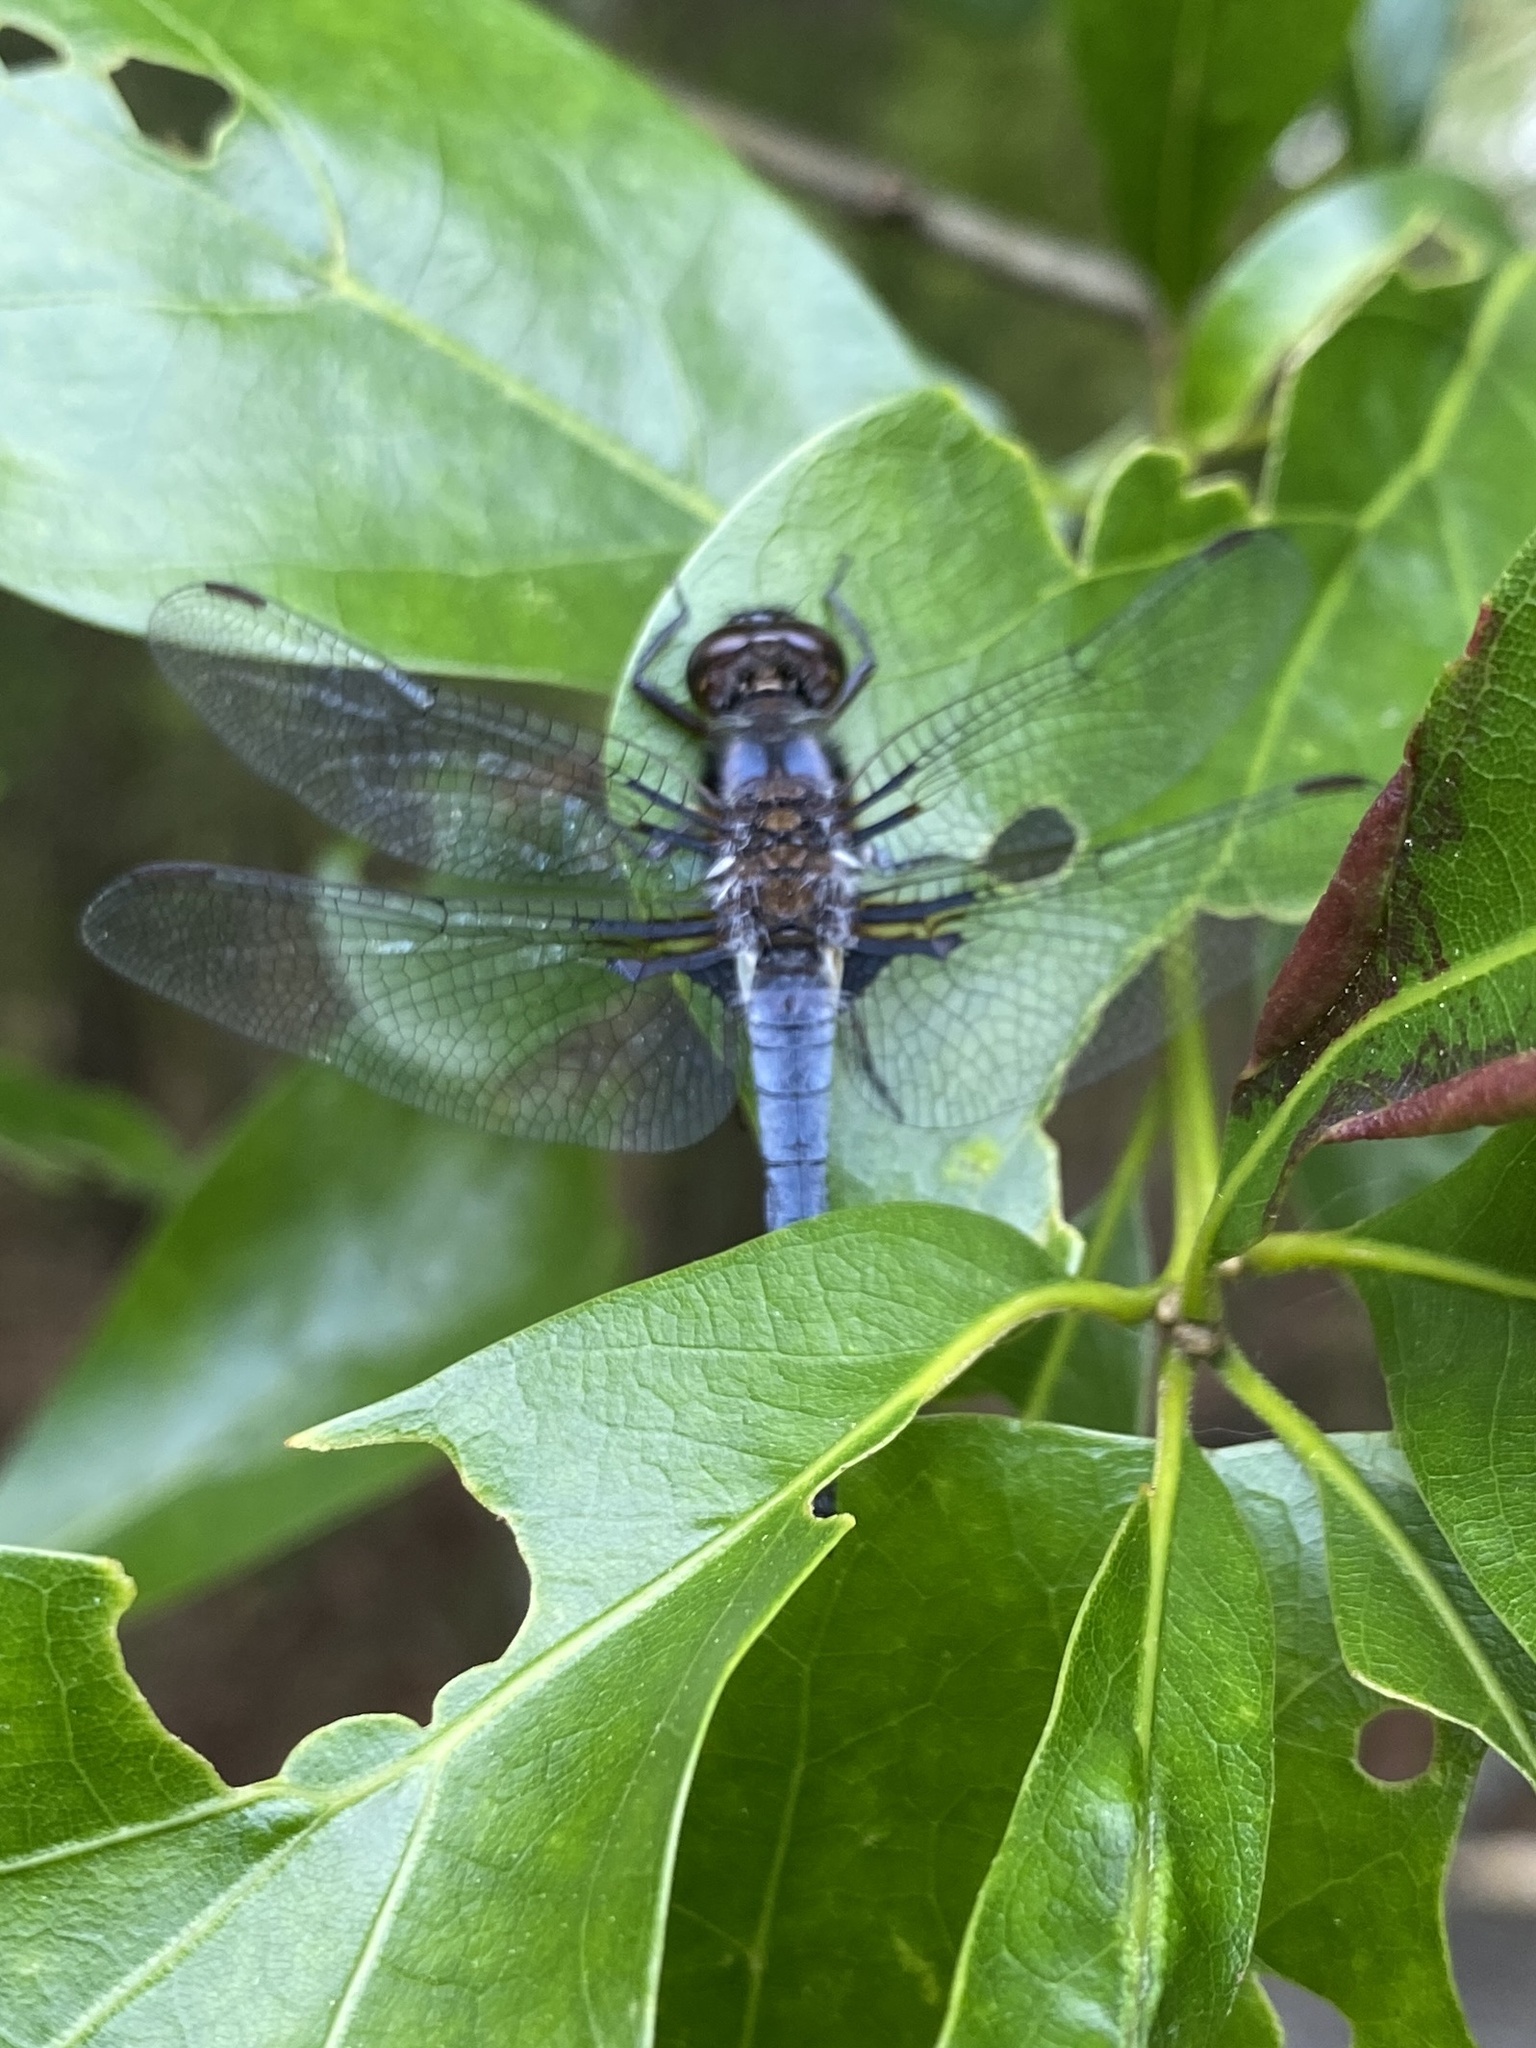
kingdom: Animalia
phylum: Arthropoda
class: Insecta
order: Odonata
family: Libellulidae
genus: Ladona
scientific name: Ladona deplanata
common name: Blue corporal
